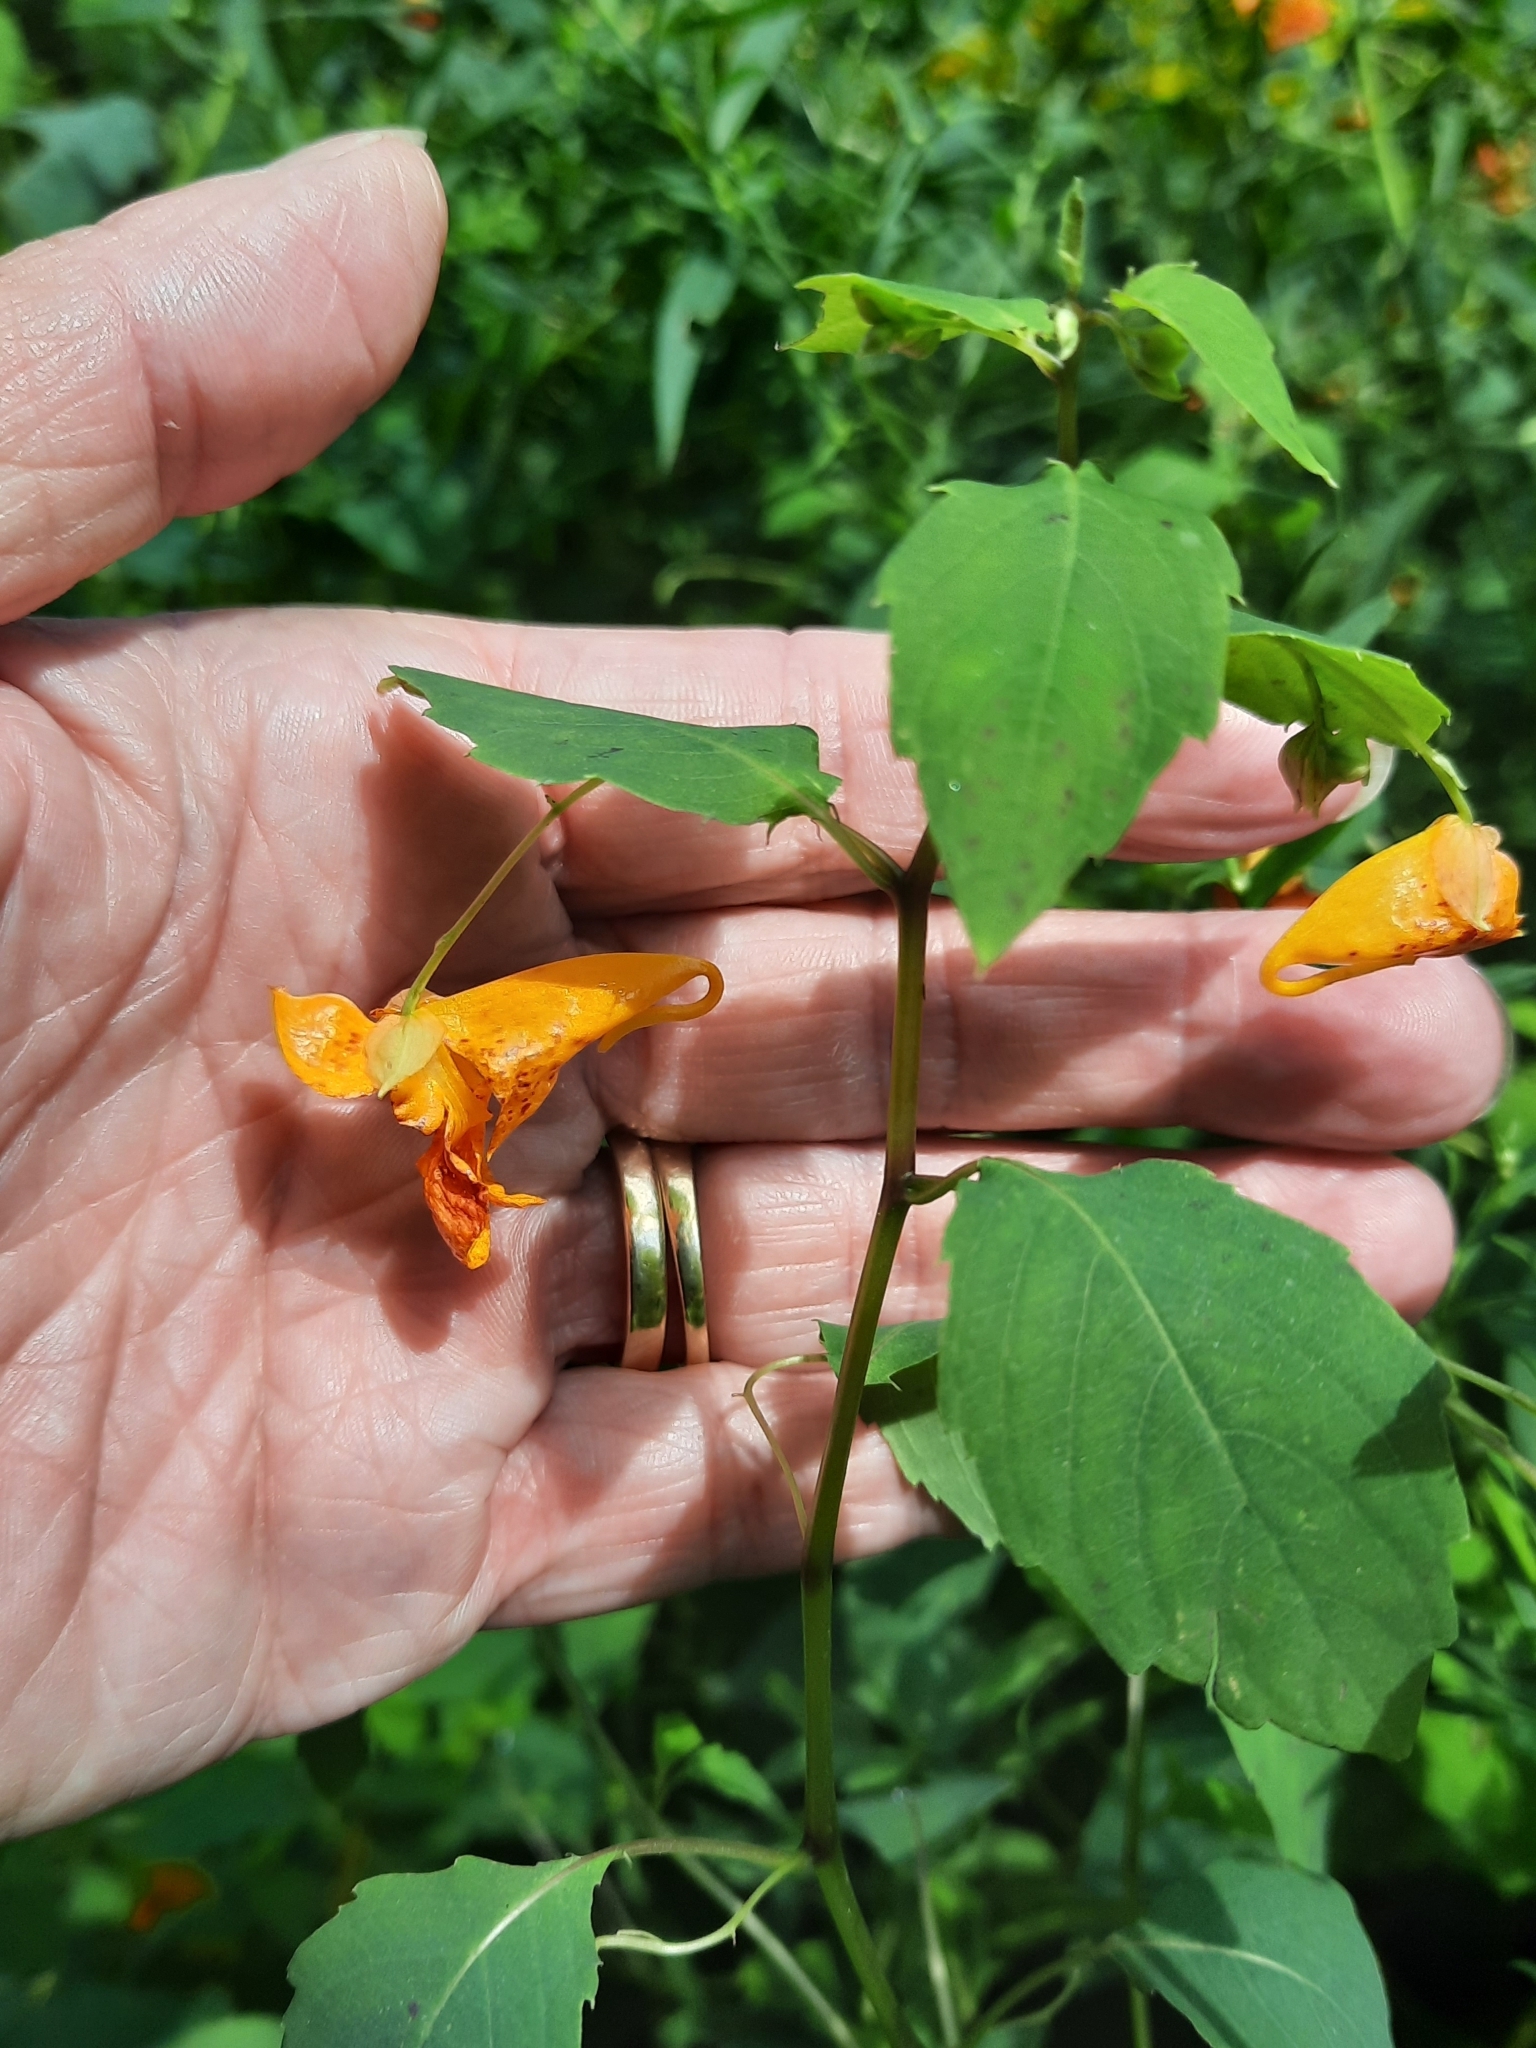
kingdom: Plantae
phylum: Tracheophyta
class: Magnoliopsida
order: Ericales
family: Balsaminaceae
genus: Impatiens
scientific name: Impatiens capensis
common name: Orange balsam
